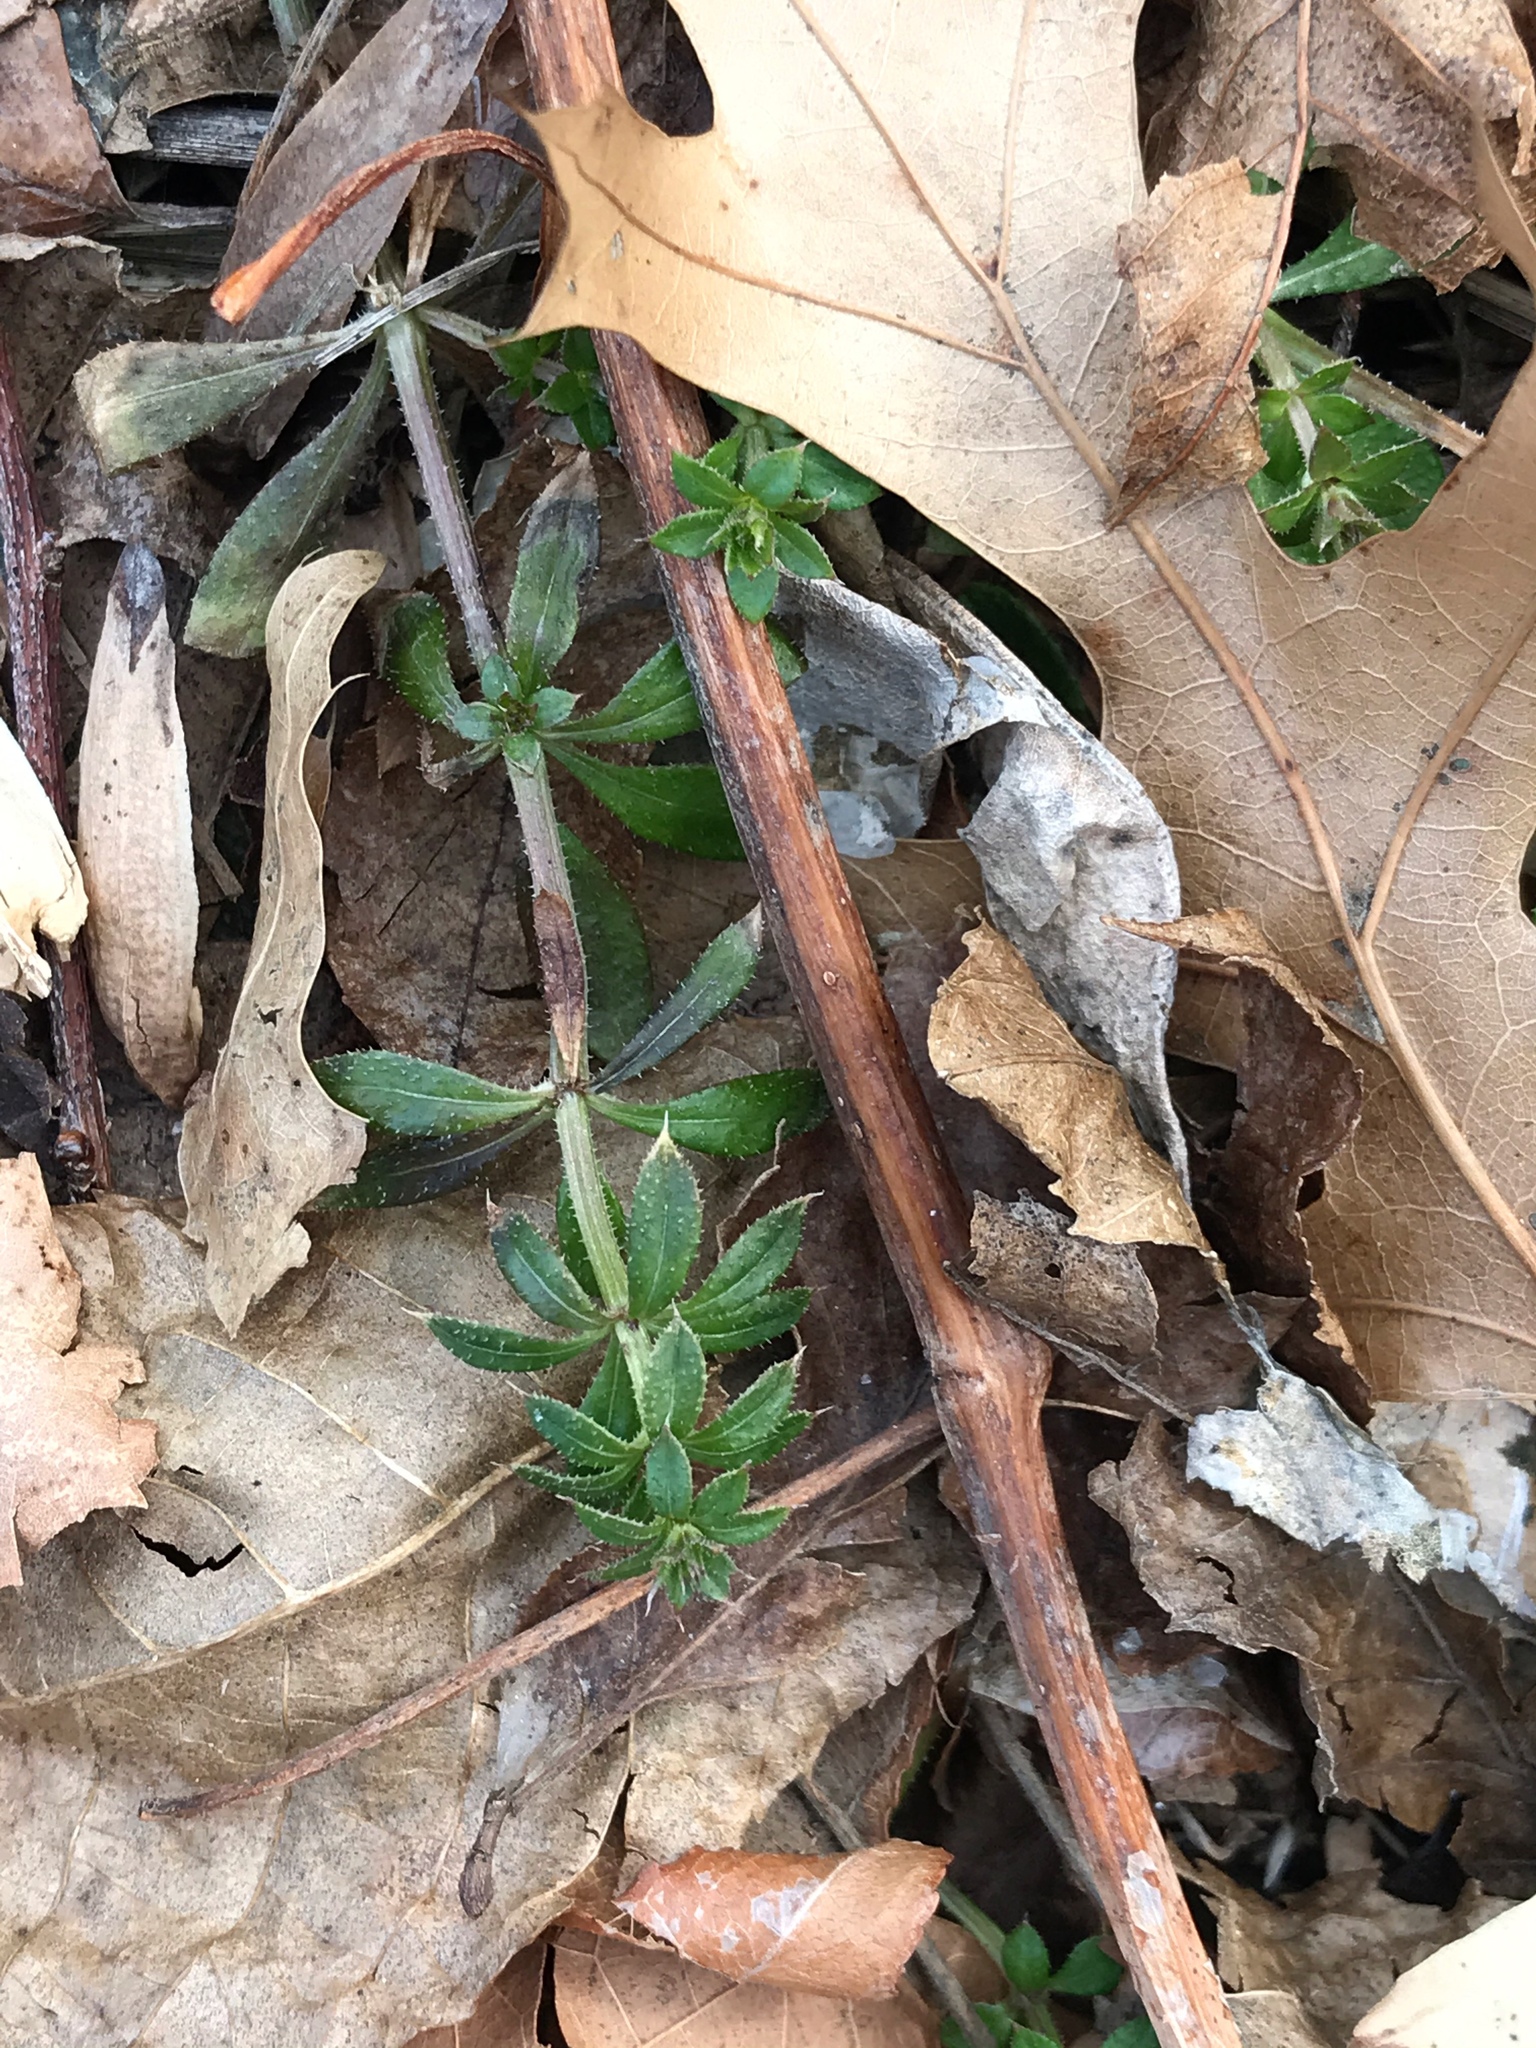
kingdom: Plantae
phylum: Tracheophyta
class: Magnoliopsida
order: Gentianales
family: Rubiaceae
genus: Galium
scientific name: Galium aparine
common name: Cleavers
